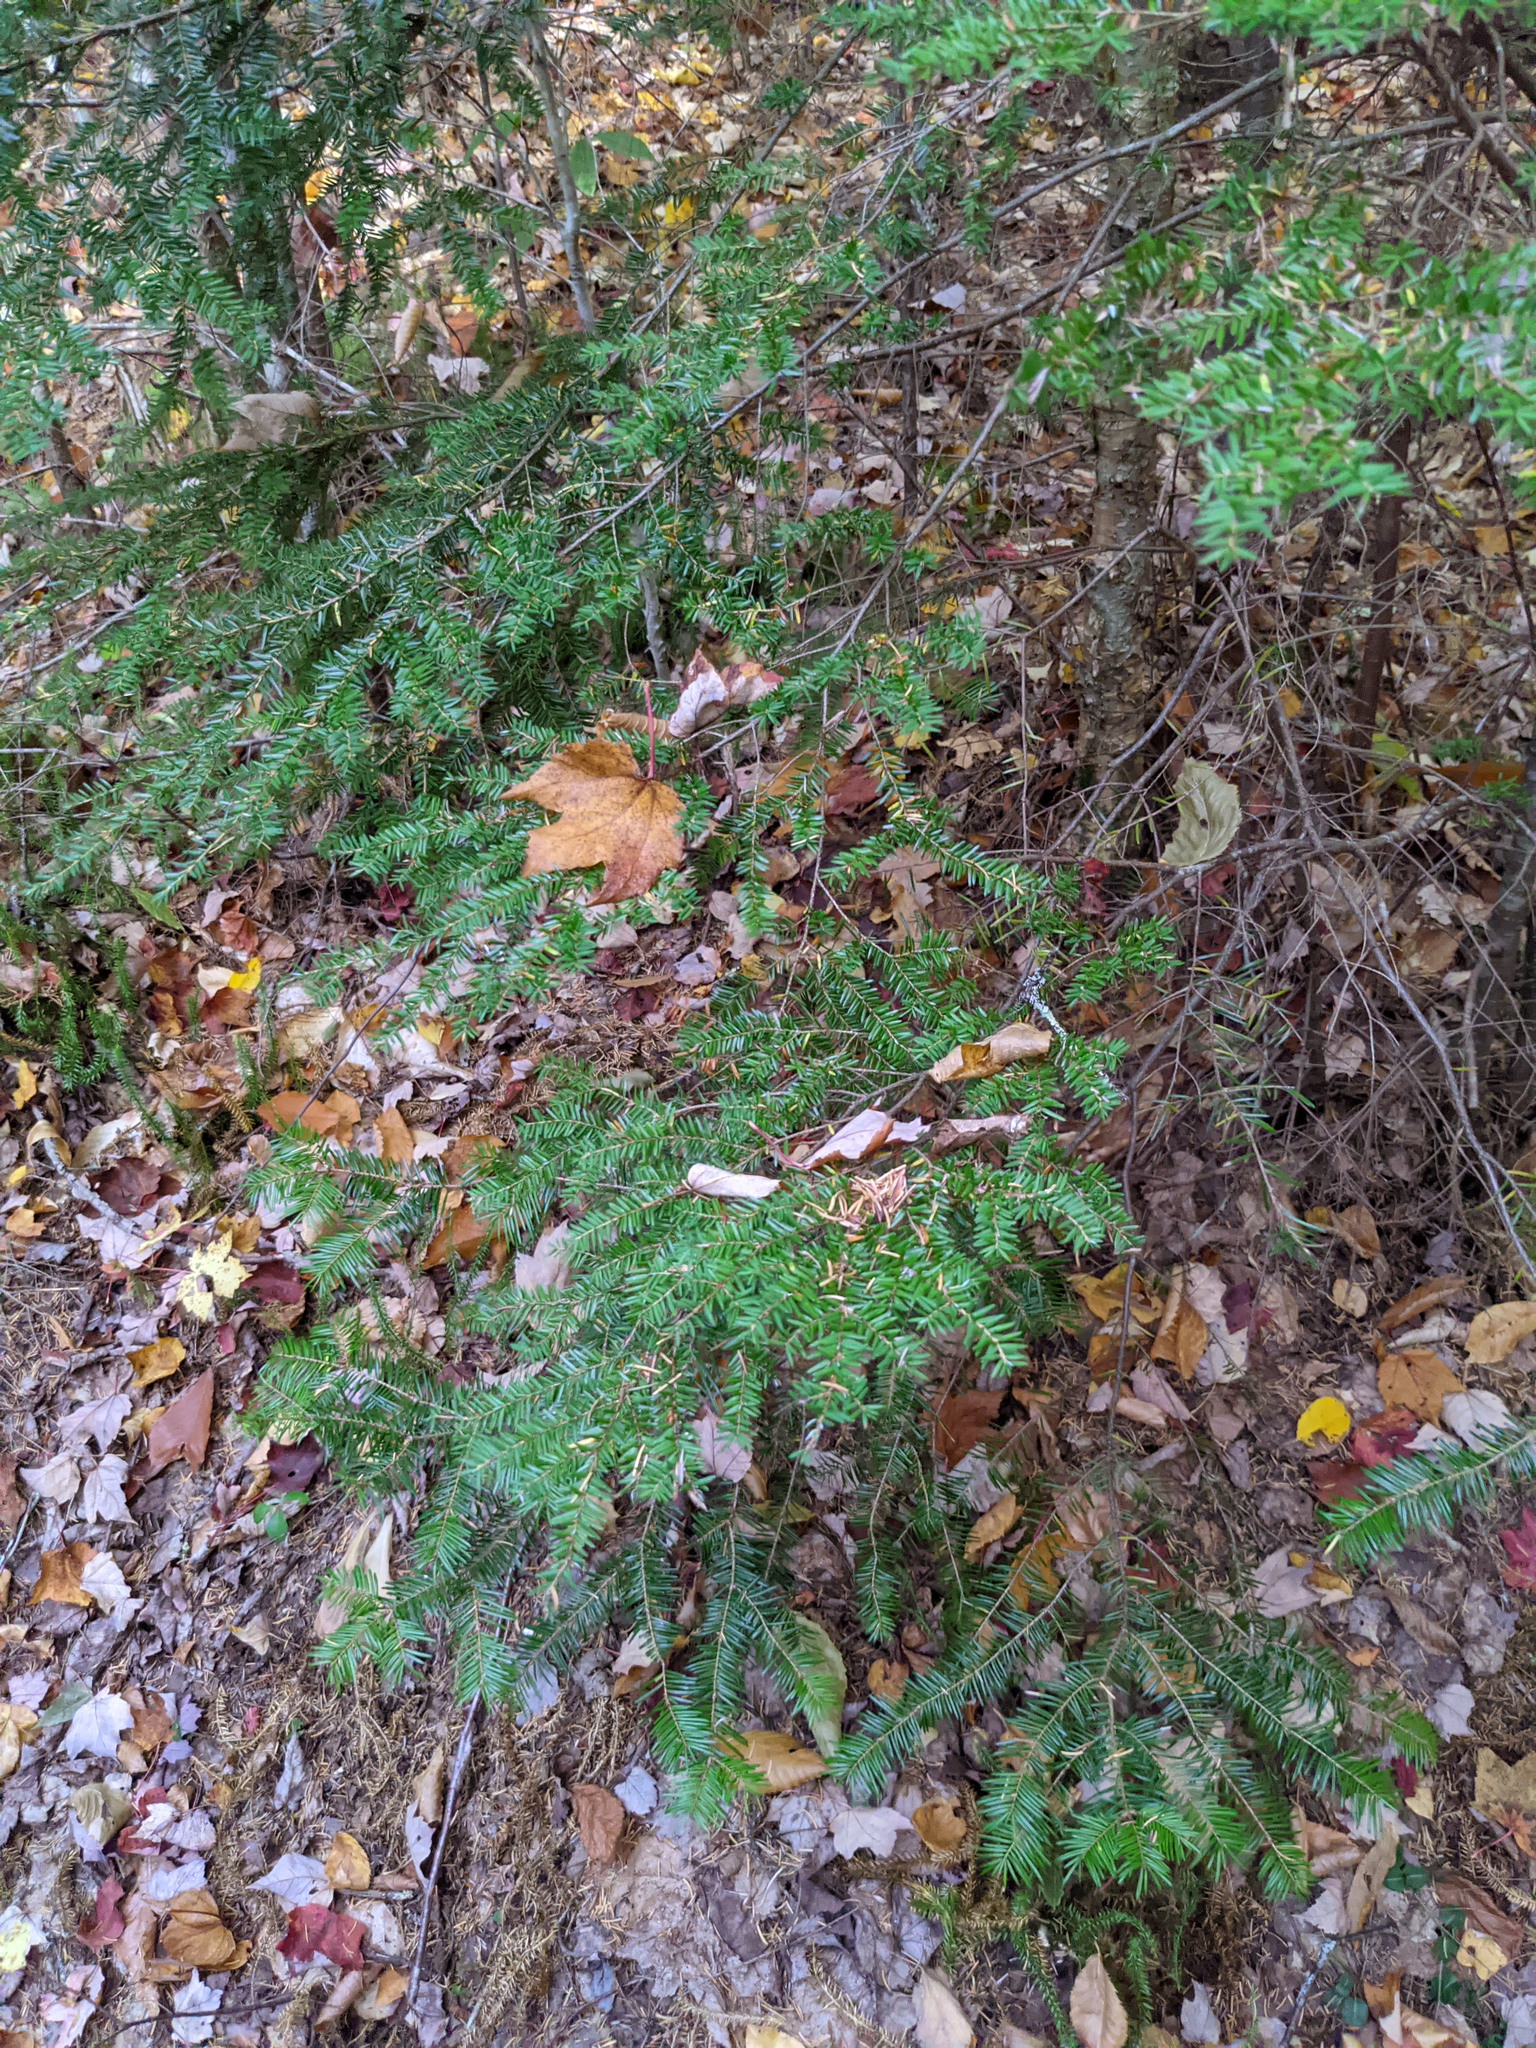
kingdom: Plantae
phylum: Tracheophyta
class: Pinopsida
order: Pinales
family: Pinaceae
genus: Tsuga
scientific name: Tsuga canadensis
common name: Eastern hemlock
